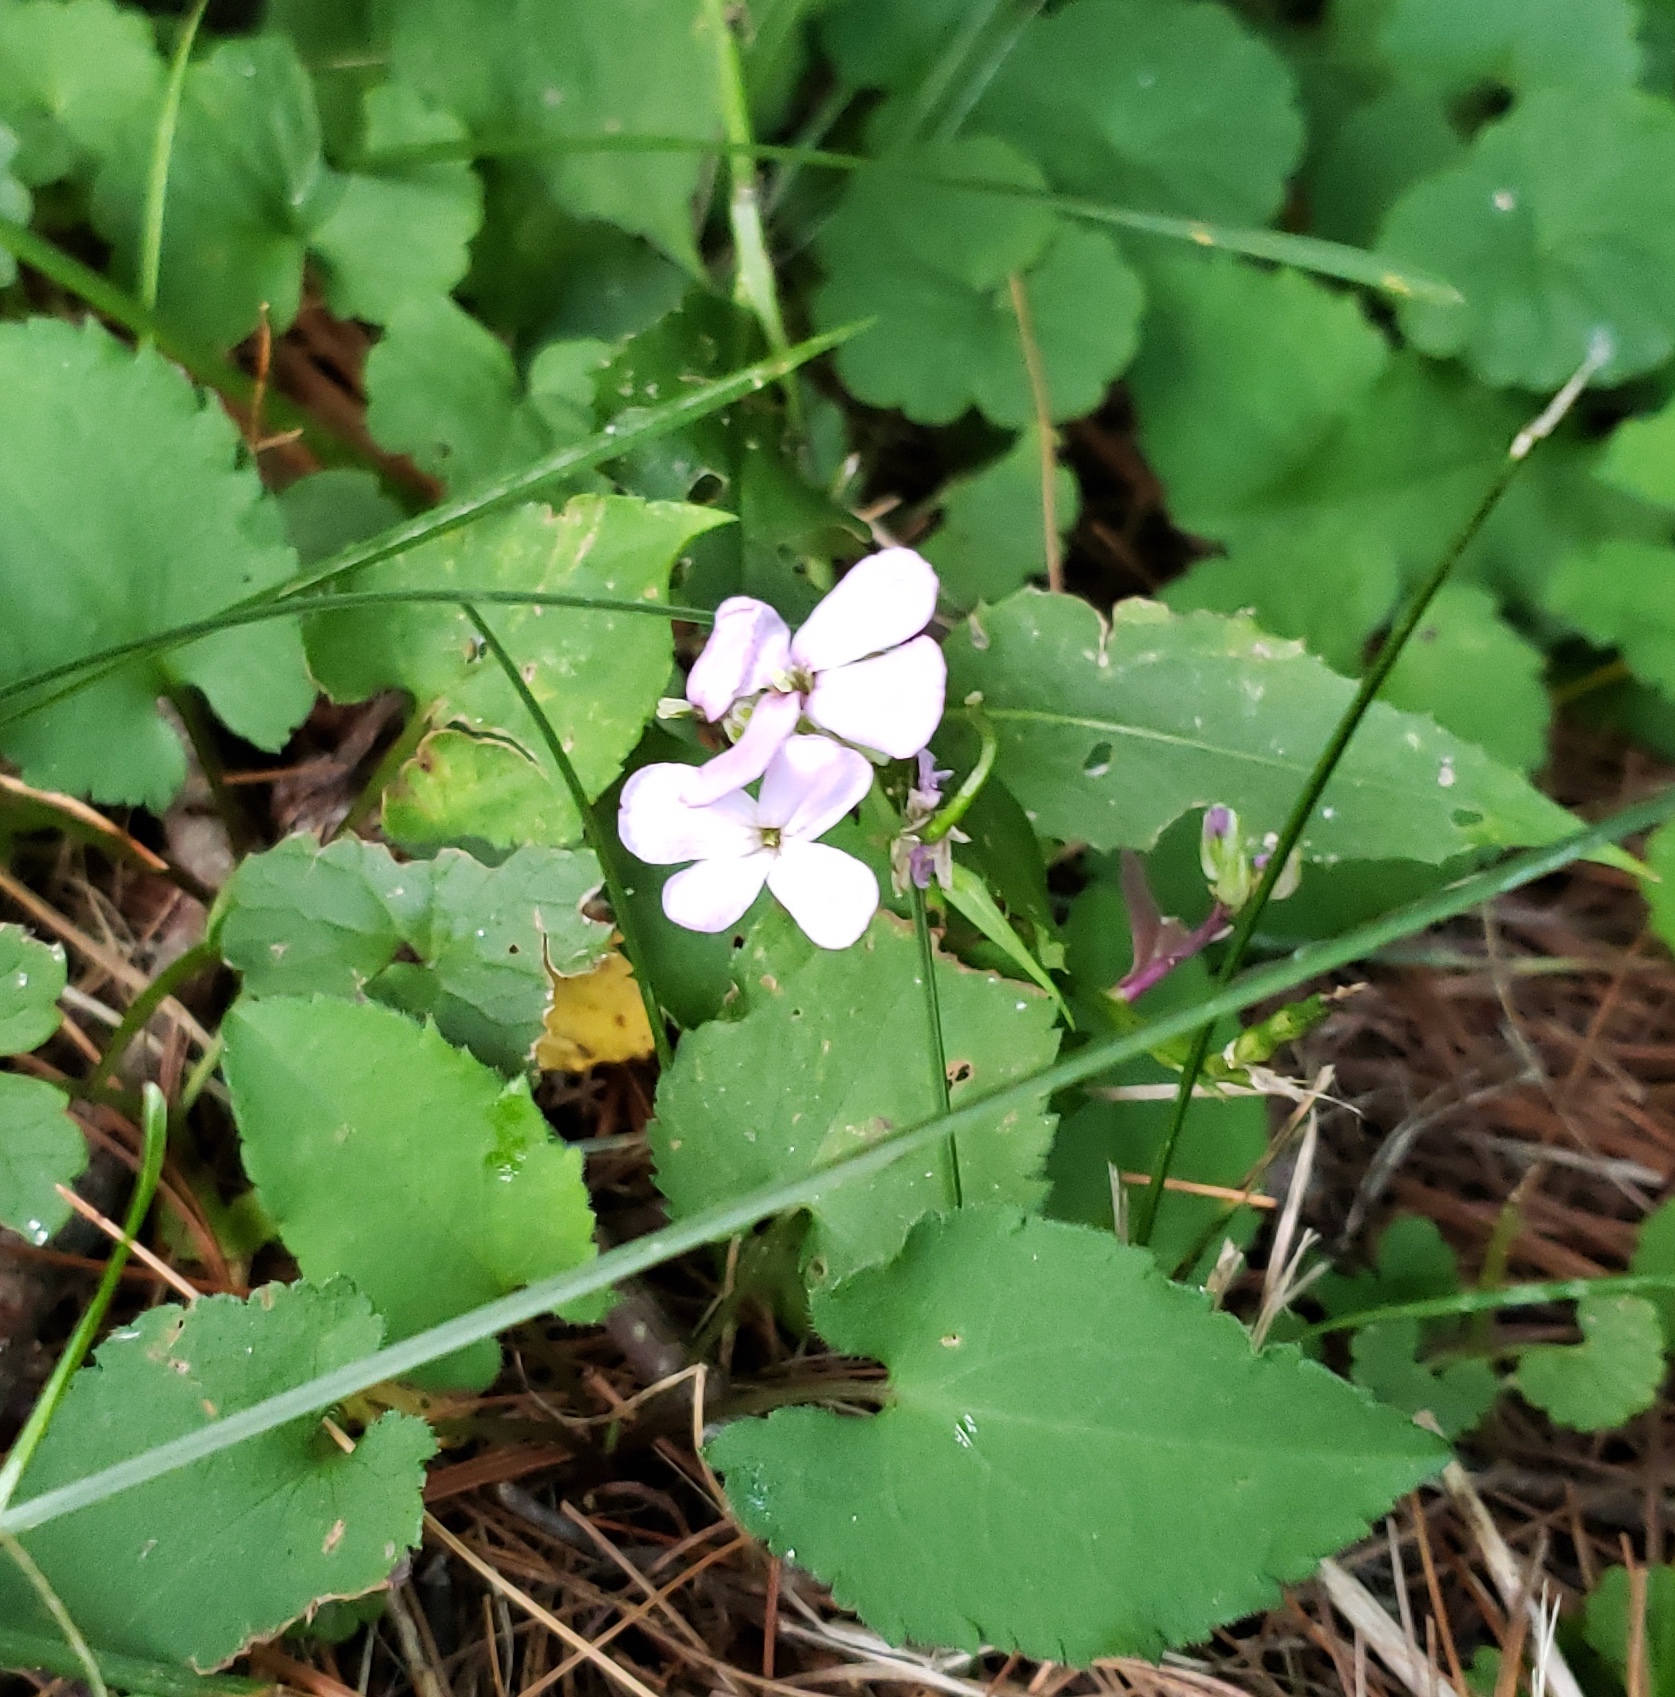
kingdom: Plantae
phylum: Tracheophyta
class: Magnoliopsida
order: Brassicales
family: Brassicaceae
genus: Hesperis
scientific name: Hesperis matronalis
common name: Dame's-violet
